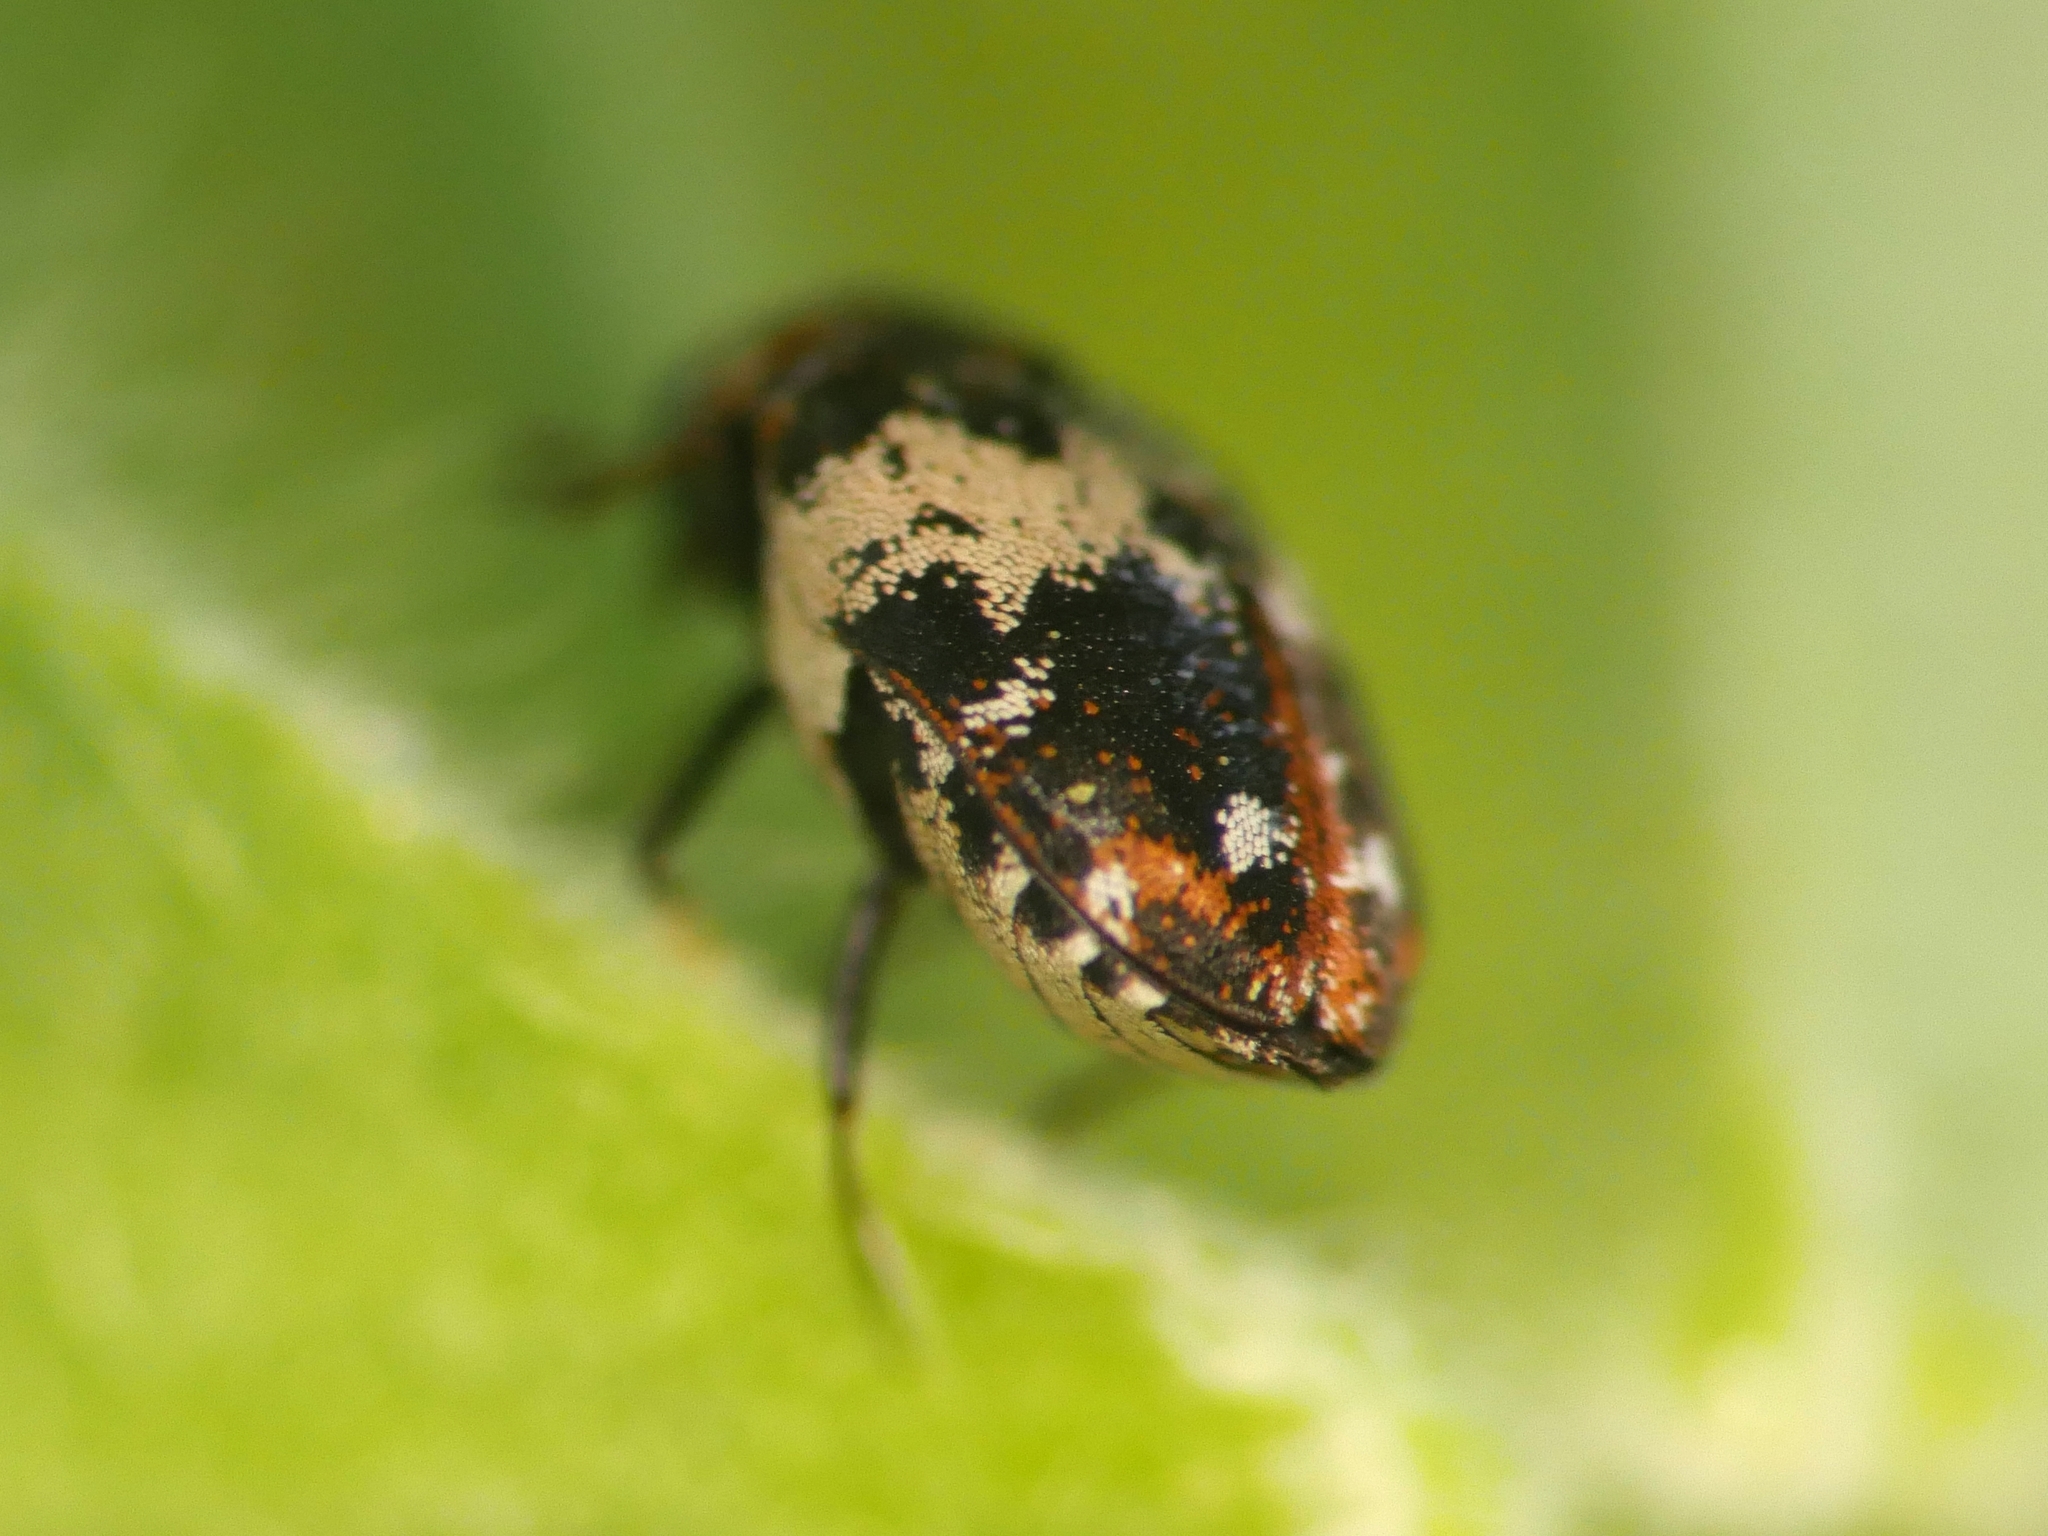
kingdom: Animalia
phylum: Arthropoda
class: Insecta
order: Coleoptera
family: Dermestidae
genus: Anthrenus
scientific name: Anthrenus pimpinellae
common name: Dermestid beetle
